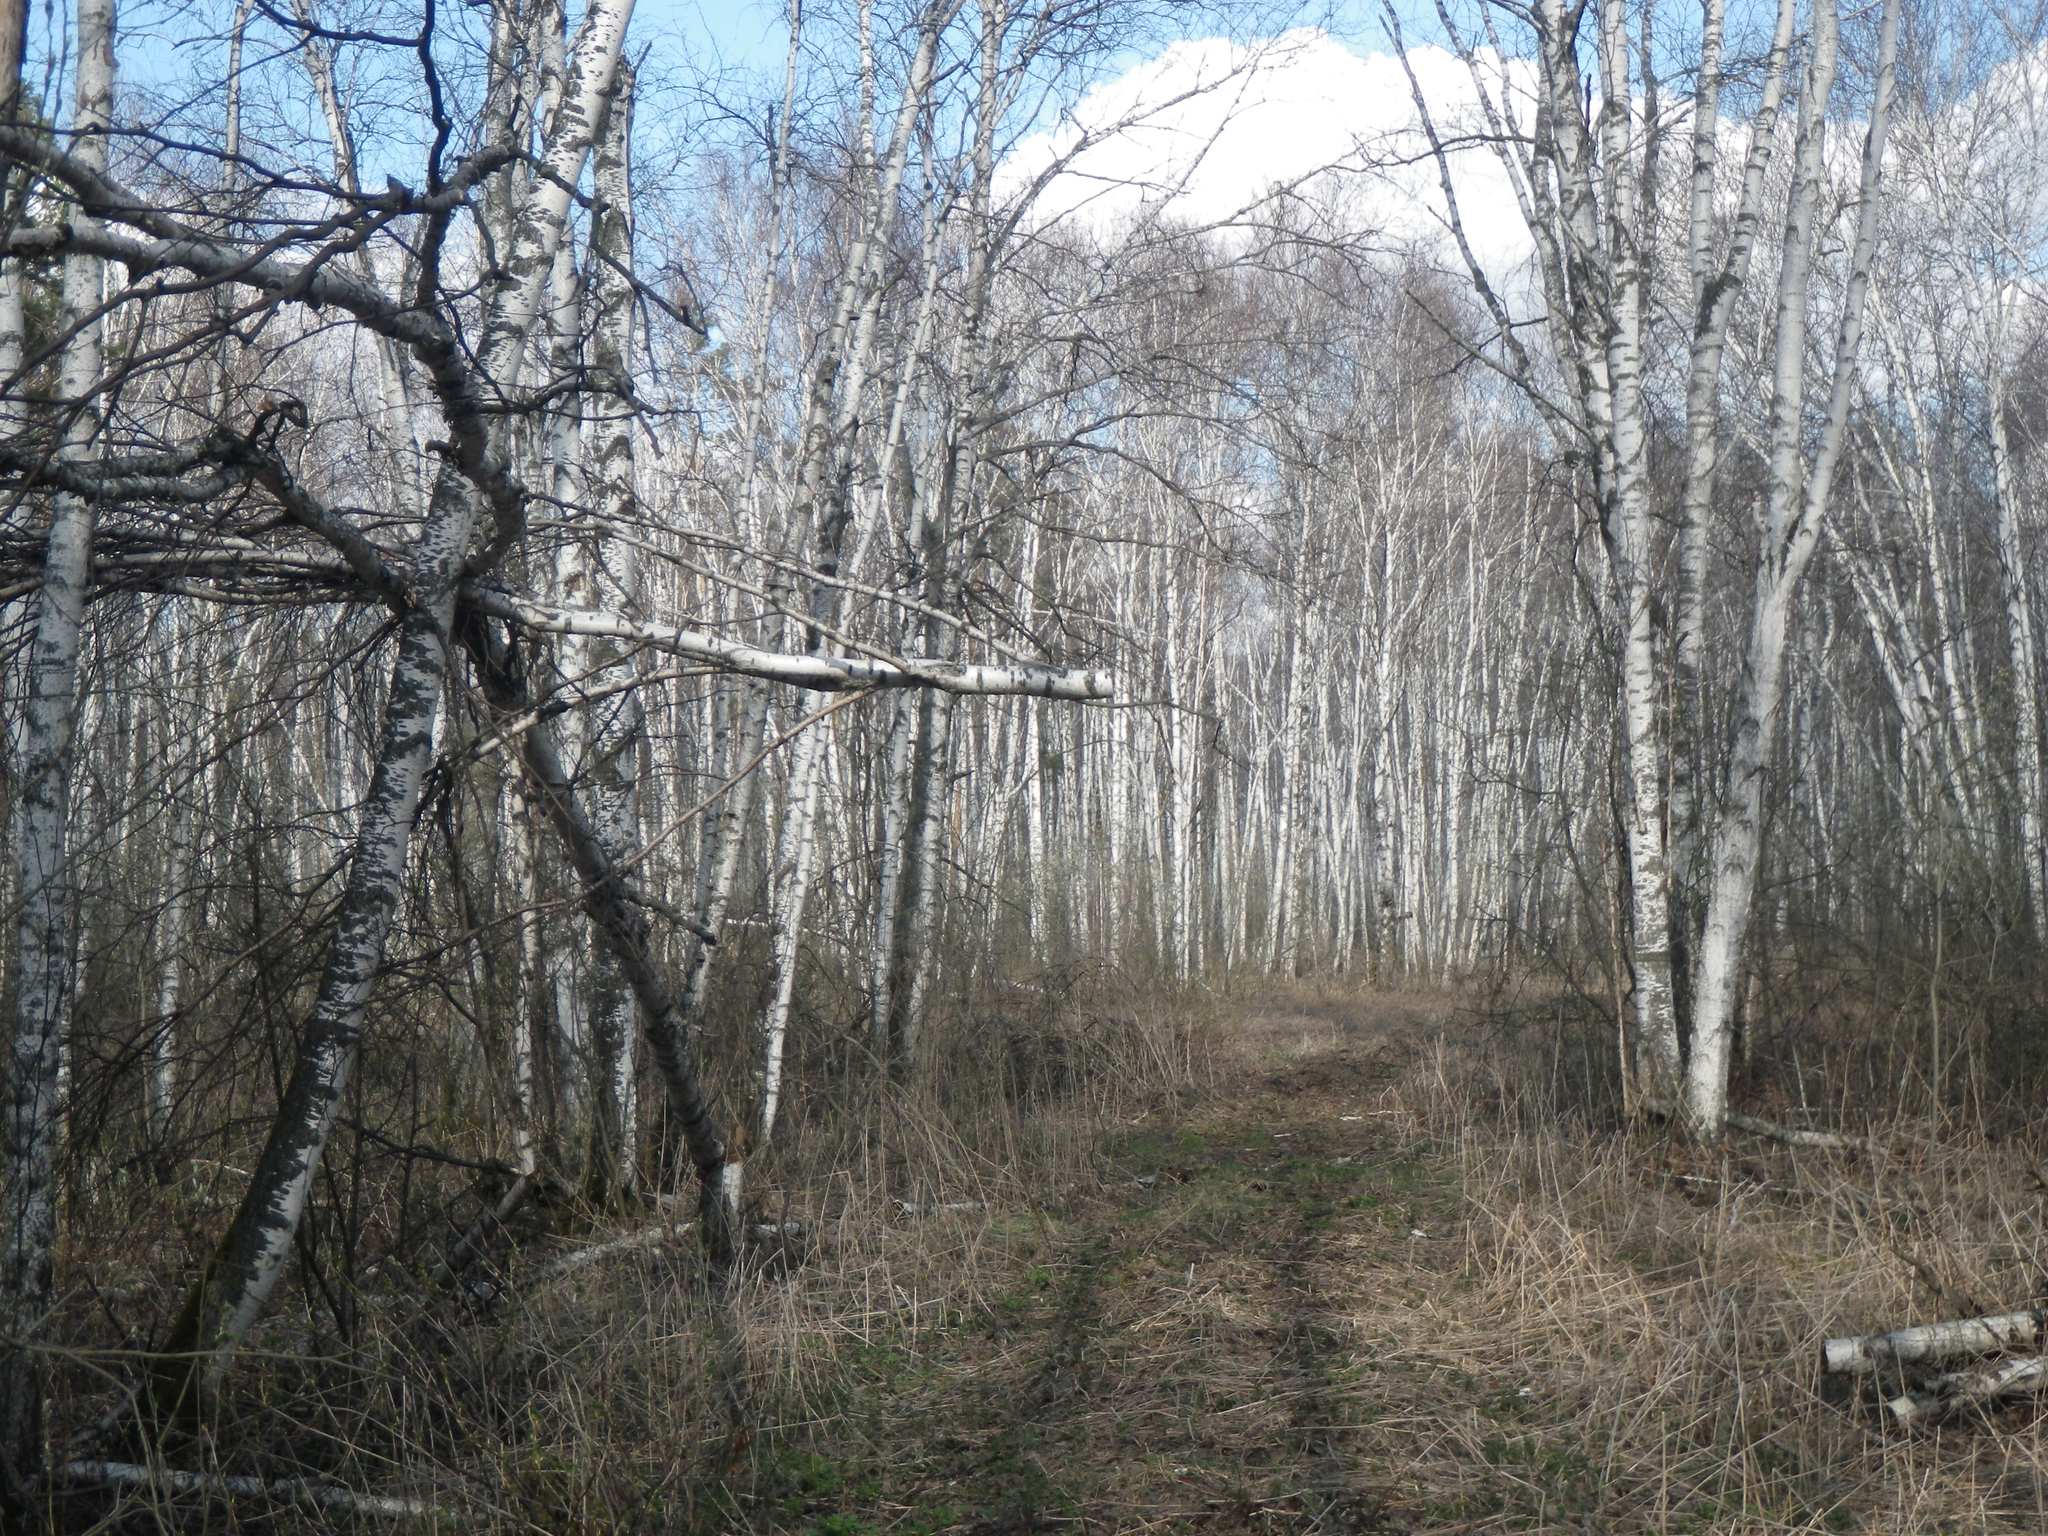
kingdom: Plantae
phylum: Tracheophyta
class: Magnoliopsida
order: Fagales
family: Betulaceae
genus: Betula
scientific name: Betula pubescens
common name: Downy birch
